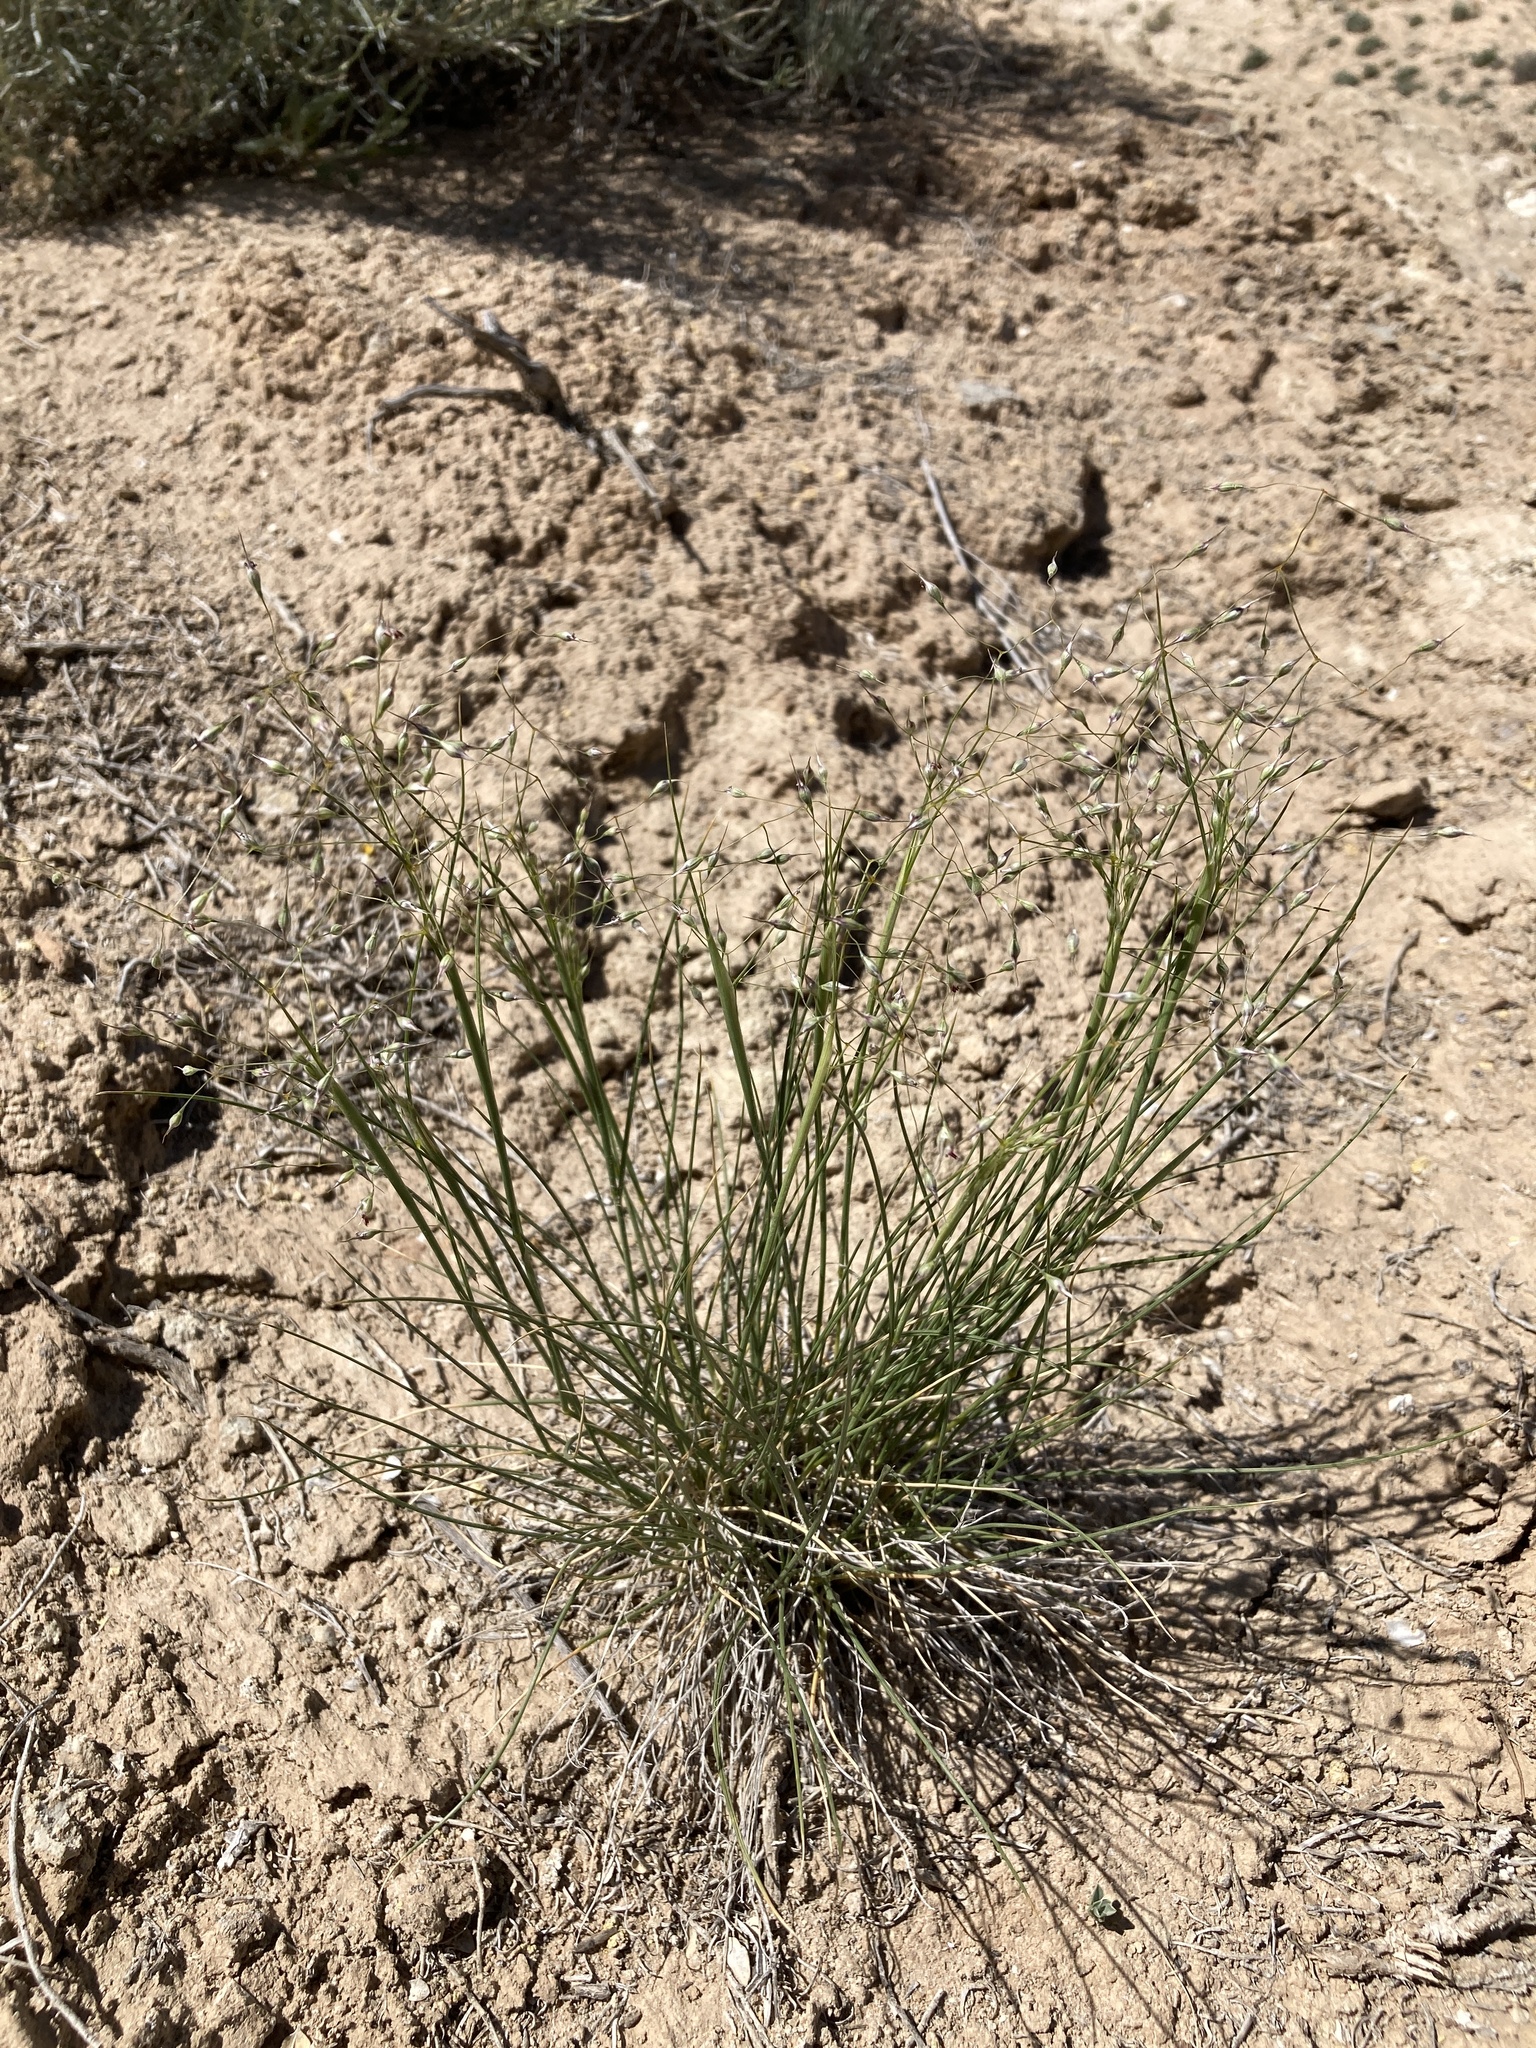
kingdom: Plantae
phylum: Tracheophyta
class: Liliopsida
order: Poales
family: Poaceae
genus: Eriocoma
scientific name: Eriocoma hymenoides
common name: Indian mountain ricegrass
